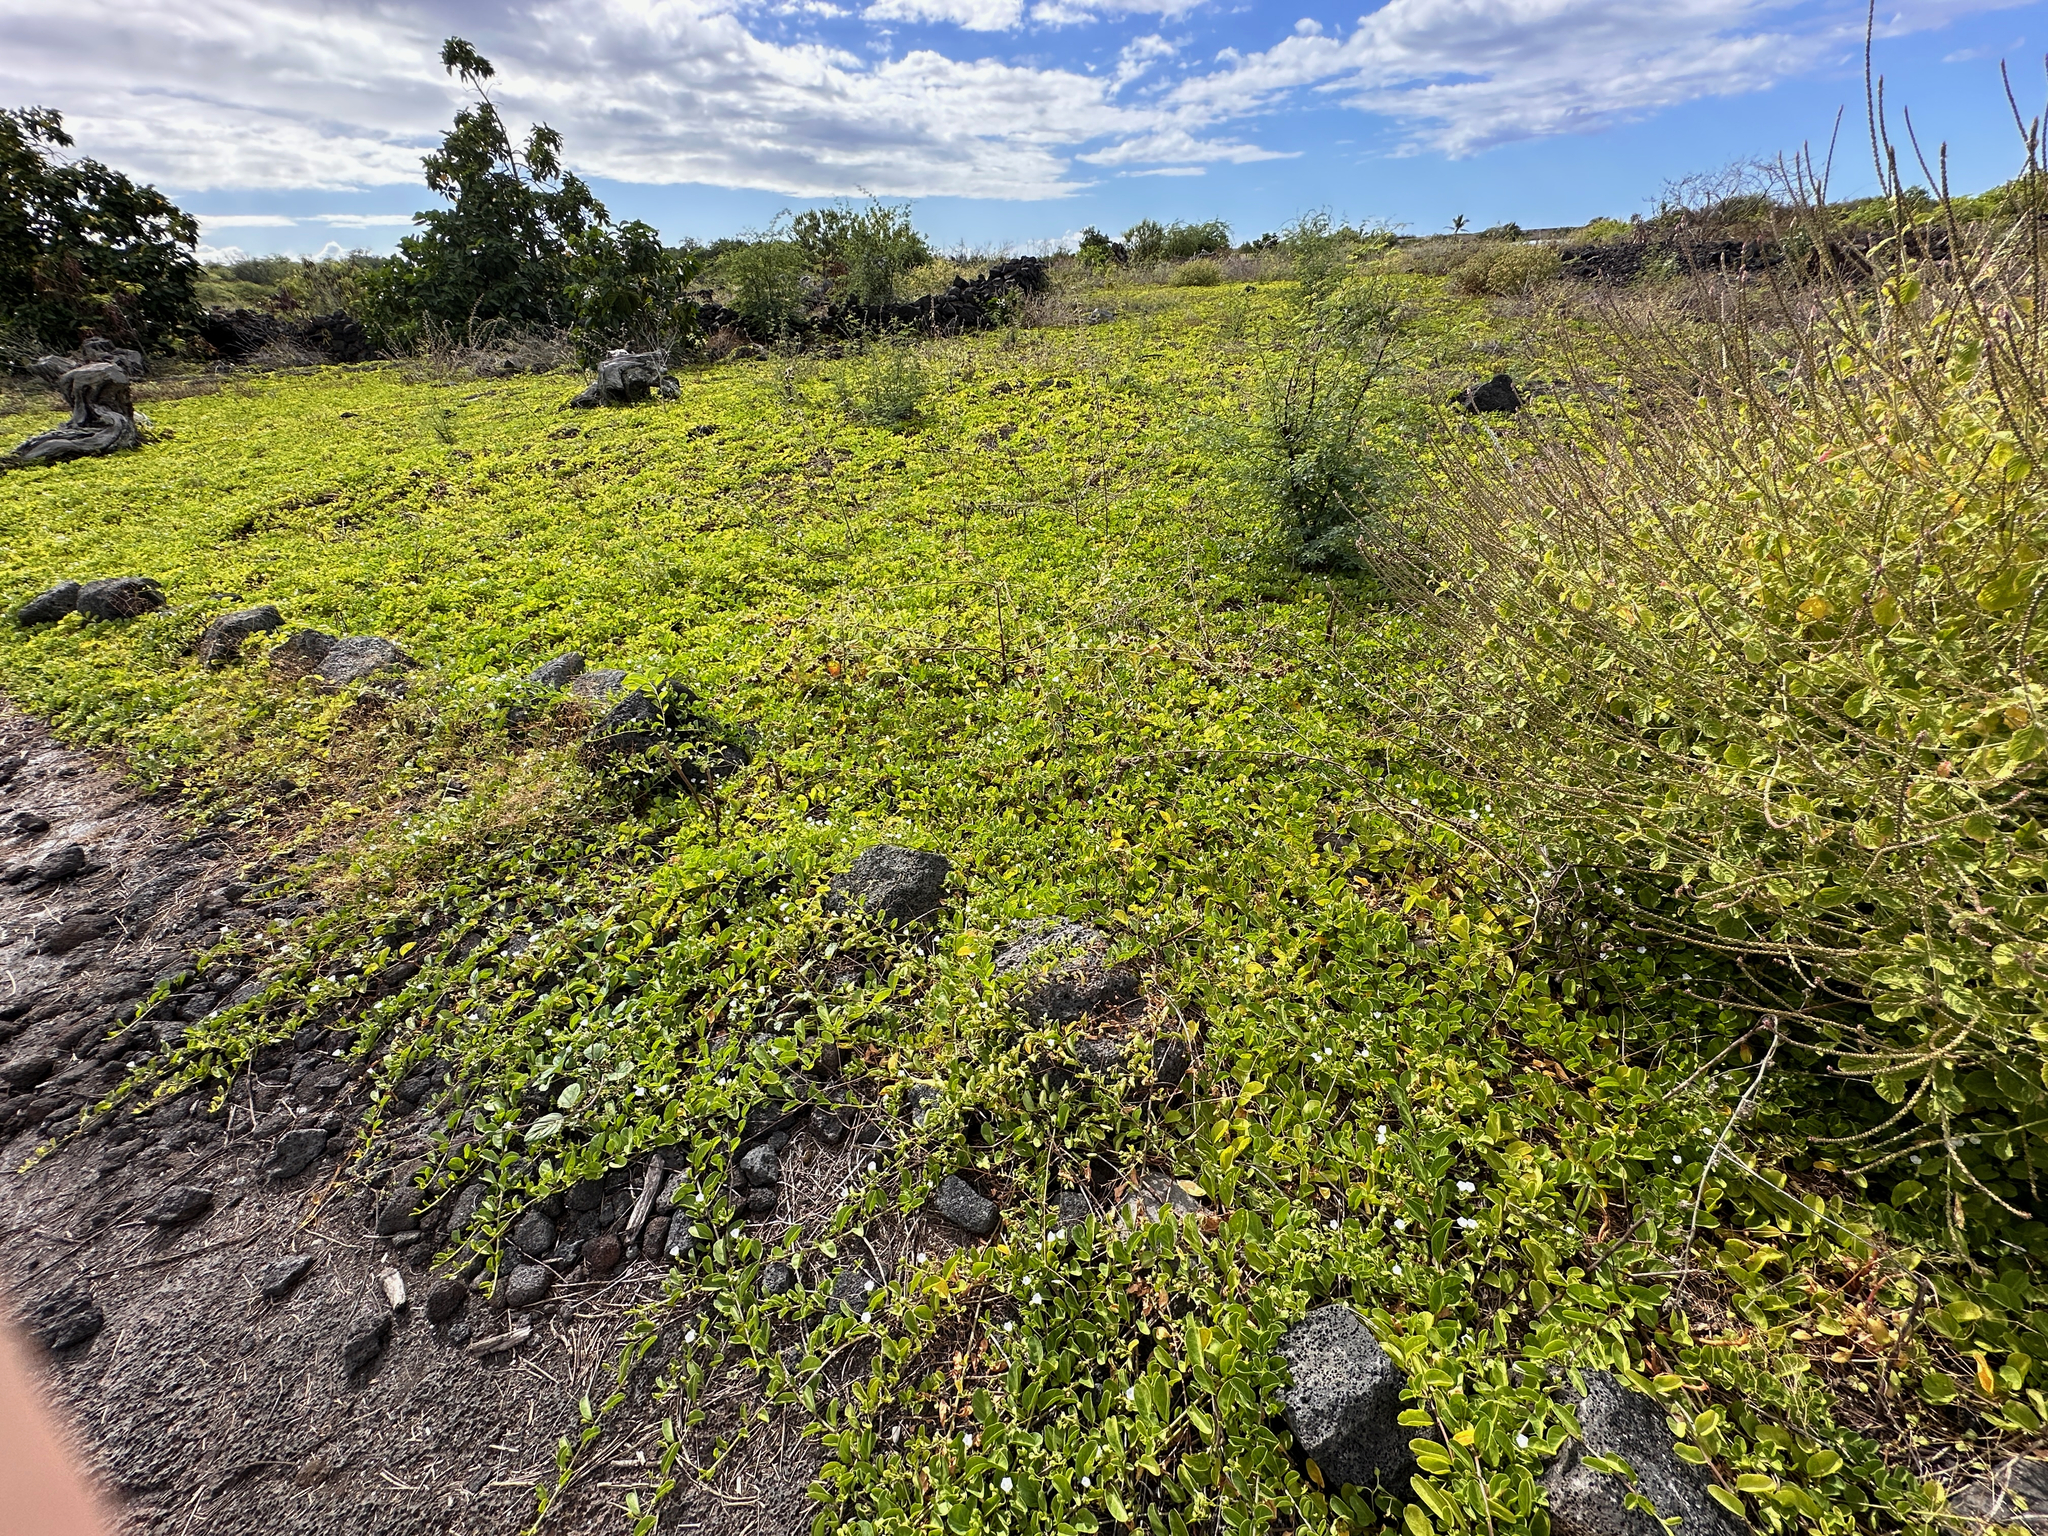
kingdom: Plantae
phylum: Tracheophyta
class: Magnoliopsida
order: Solanales
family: Convolvulaceae
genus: Jacquemontia
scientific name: Jacquemontia sandwicensis
